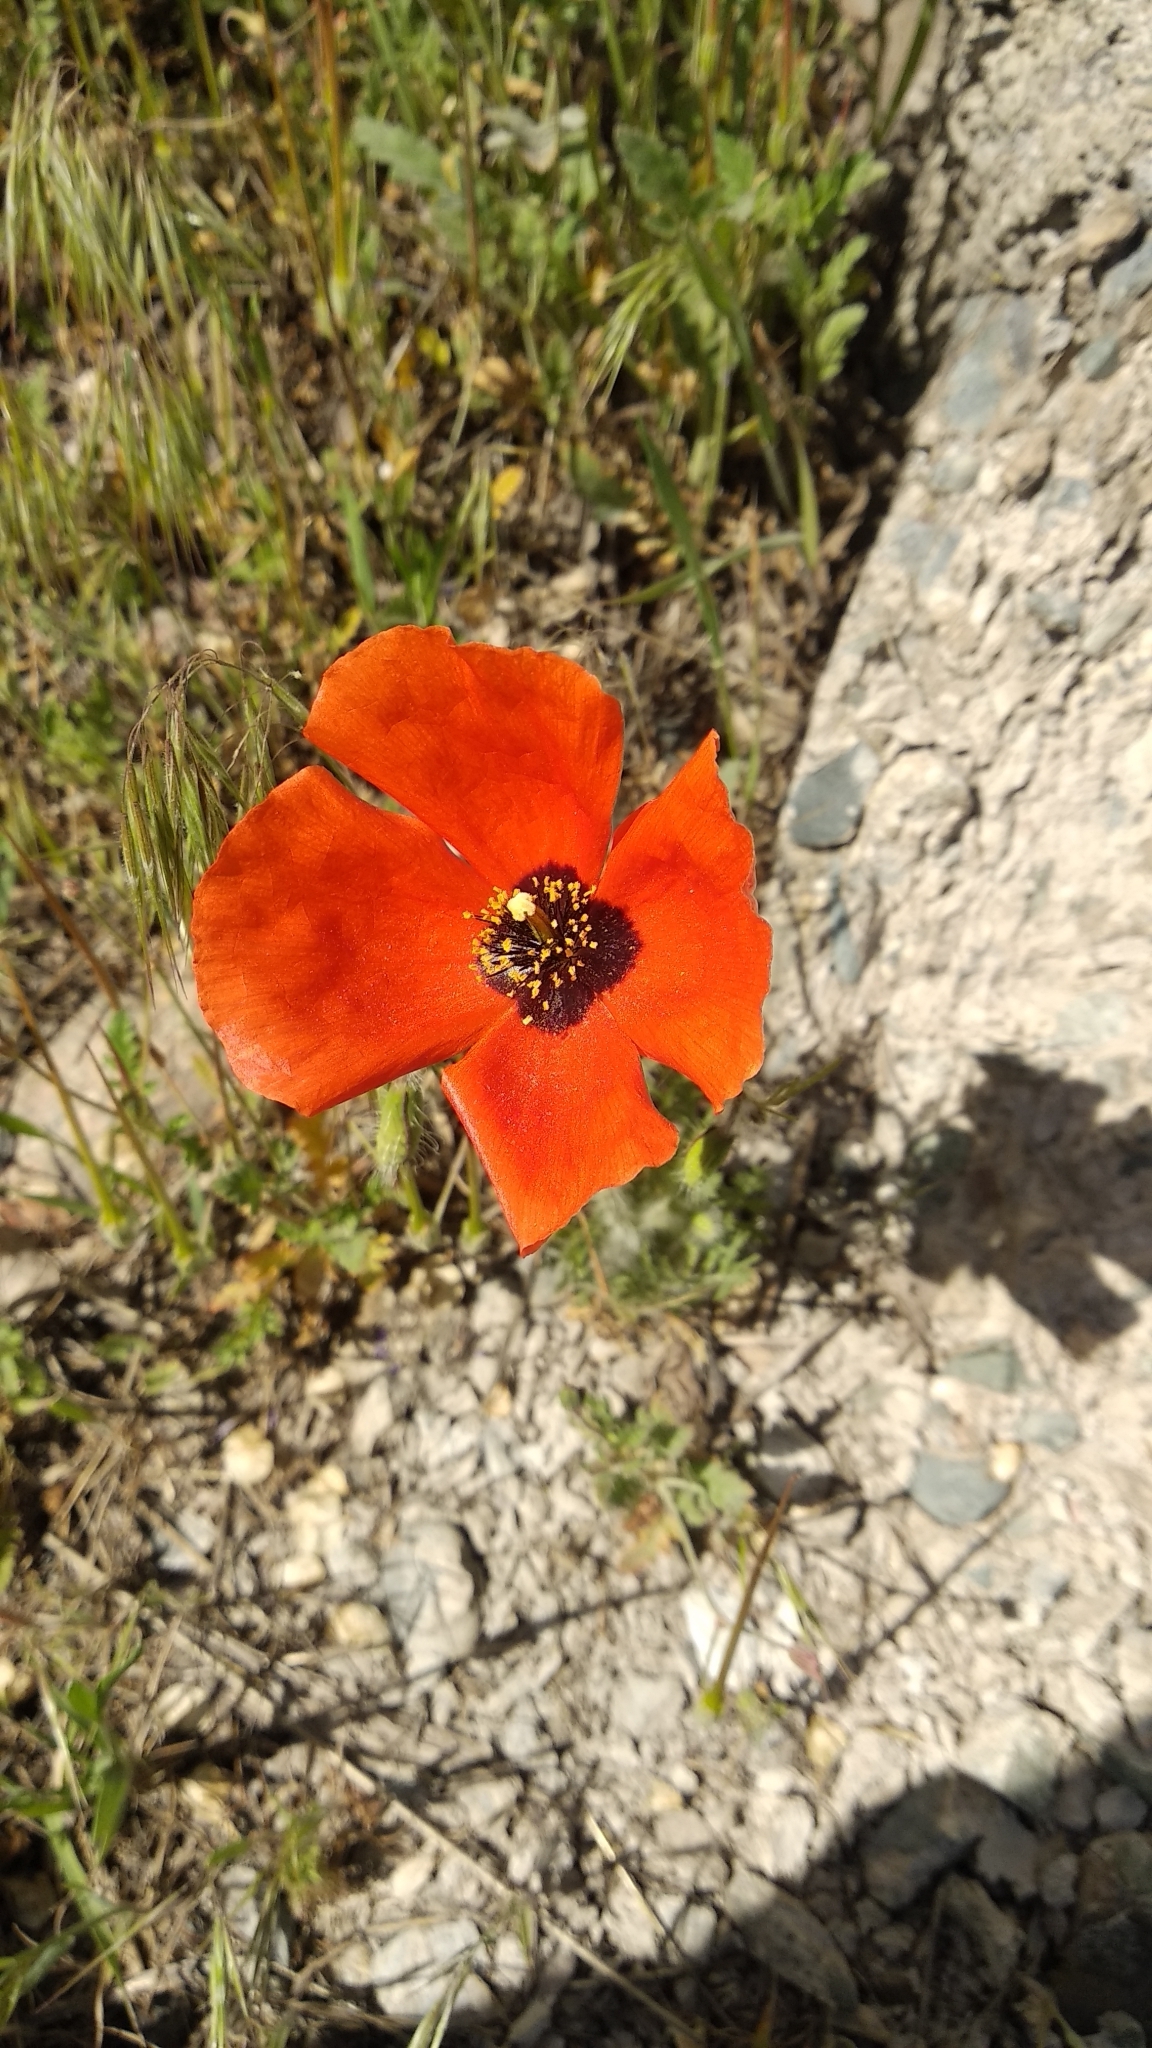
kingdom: Plantae
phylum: Tracheophyta
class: Magnoliopsida
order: Ranunculales
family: Papaveraceae
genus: Roemeria
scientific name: Roemeria refracta
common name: Spotted asian poppy
